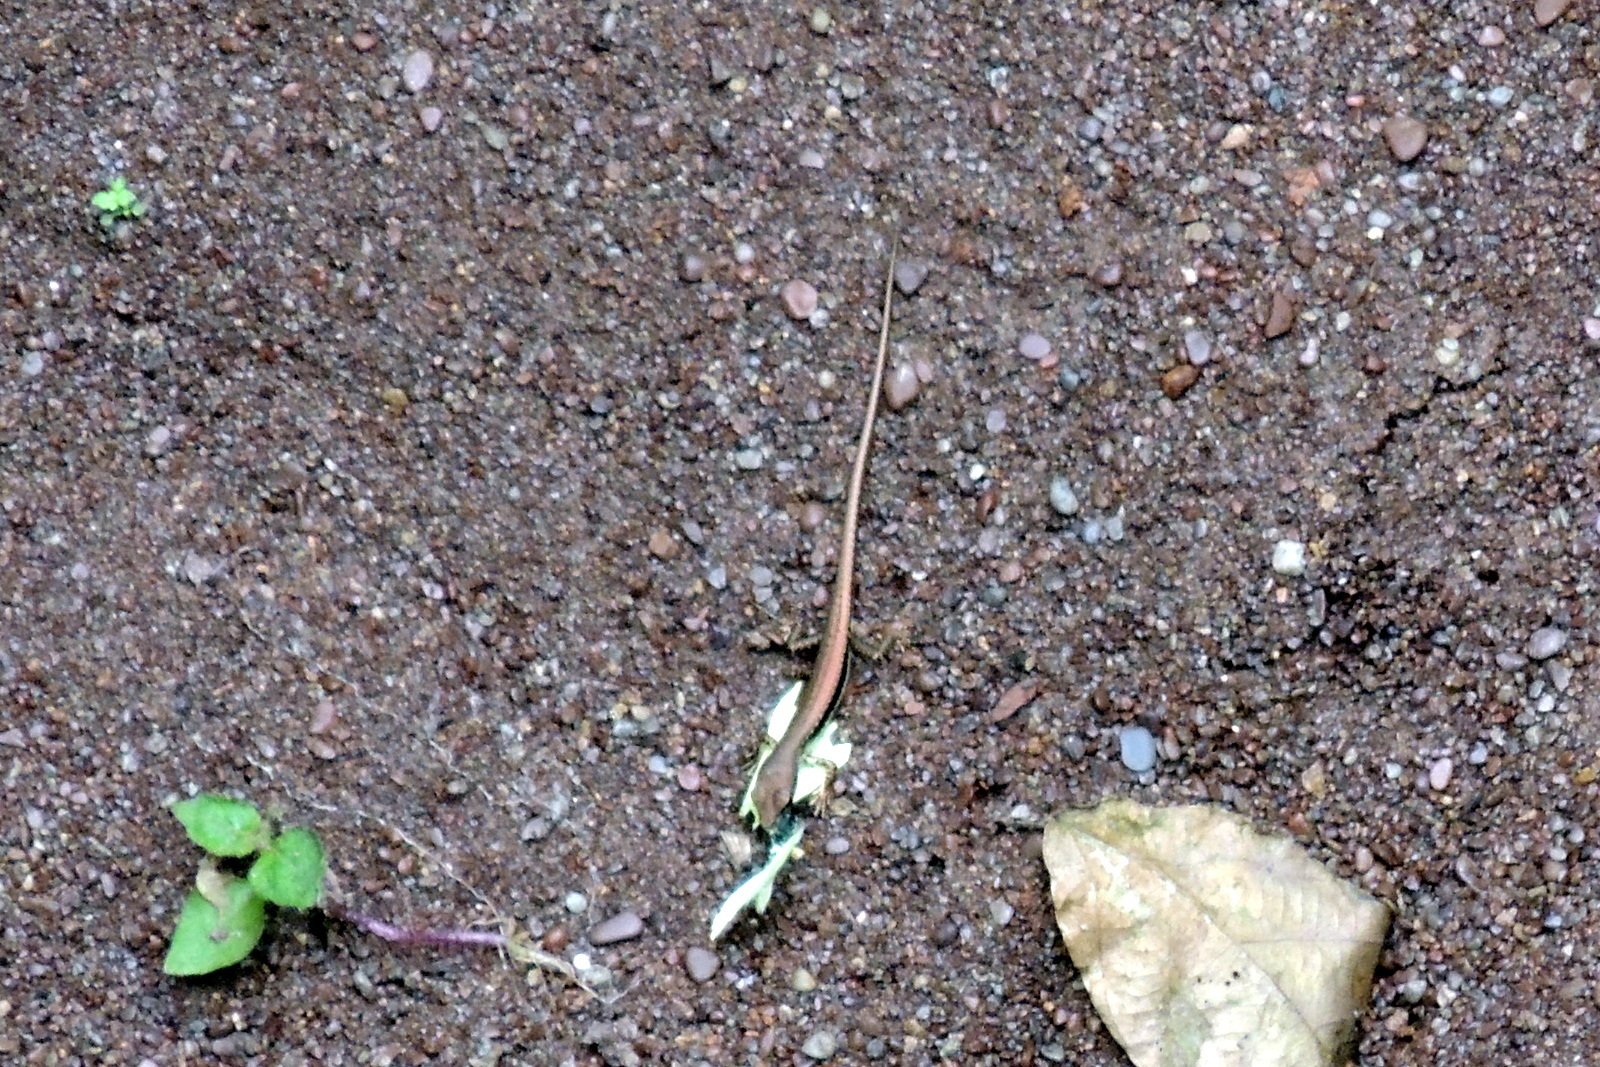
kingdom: Animalia
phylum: Chordata
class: Squamata
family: Scincidae
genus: Sphenomorphus
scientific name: Sphenomorphus maculatus
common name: Maculated forest skink
